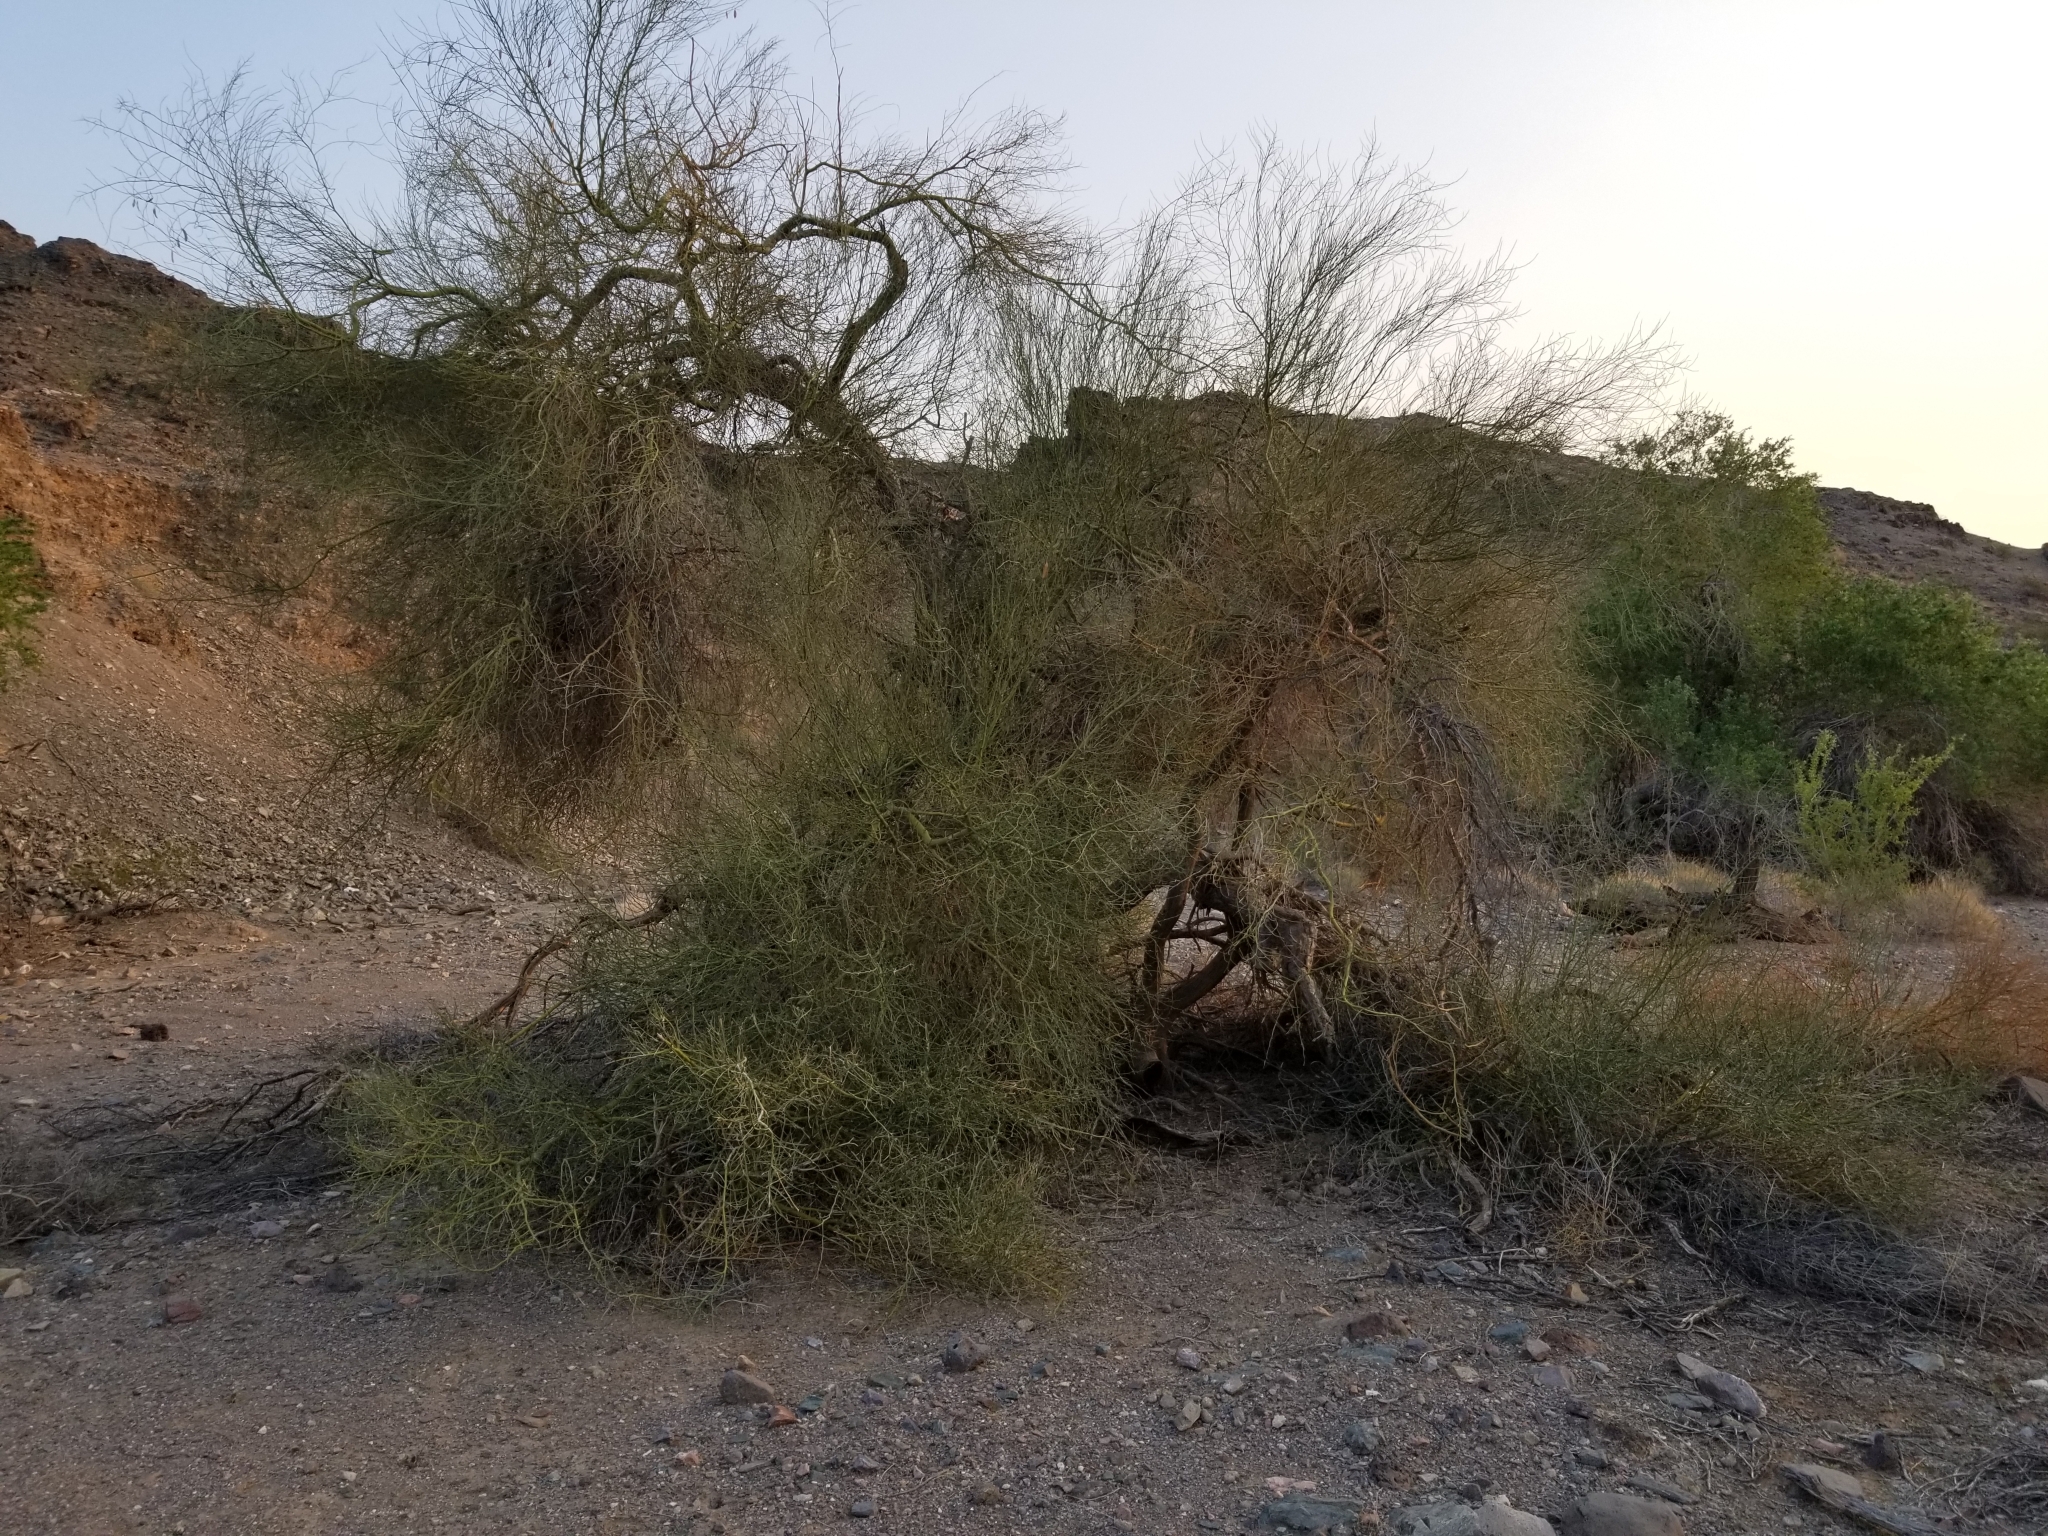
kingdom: Plantae
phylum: Tracheophyta
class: Magnoliopsida
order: Fabales
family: Fabaceae
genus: Parkinsonia
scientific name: Parkinsonia florida
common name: Blue paloverde
